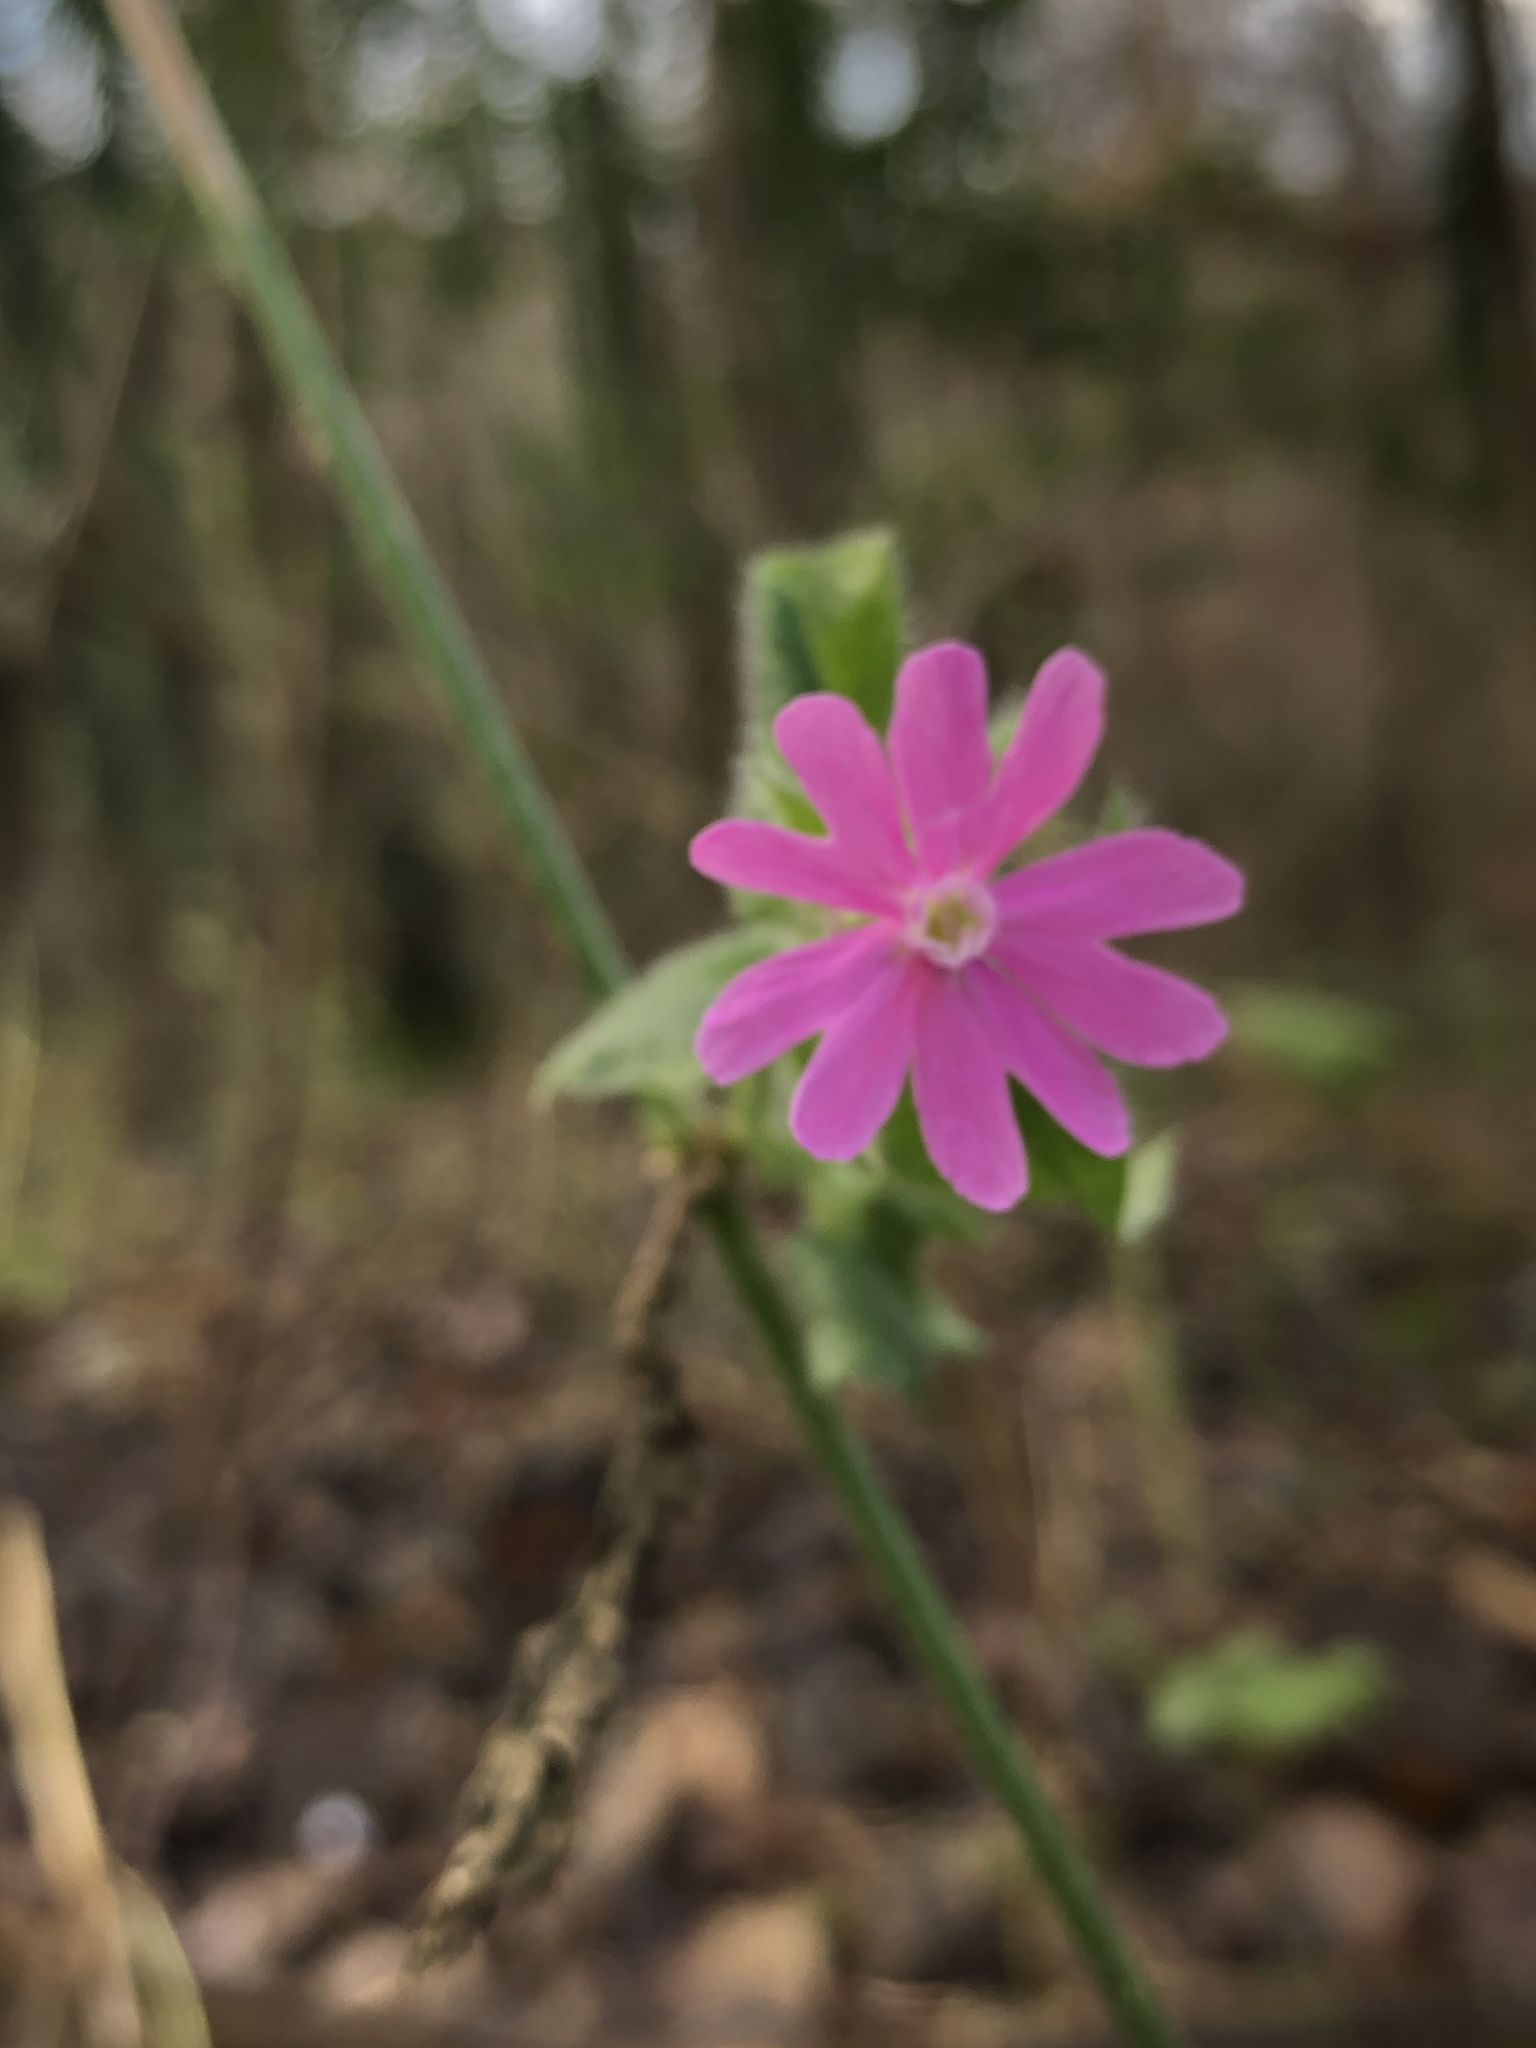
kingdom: Plantae
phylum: Tracheophyta
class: Magnoliopsida
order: Caryophyllales
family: Caryophyllaceae
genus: Silene
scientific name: Silene dioica
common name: Red campion
